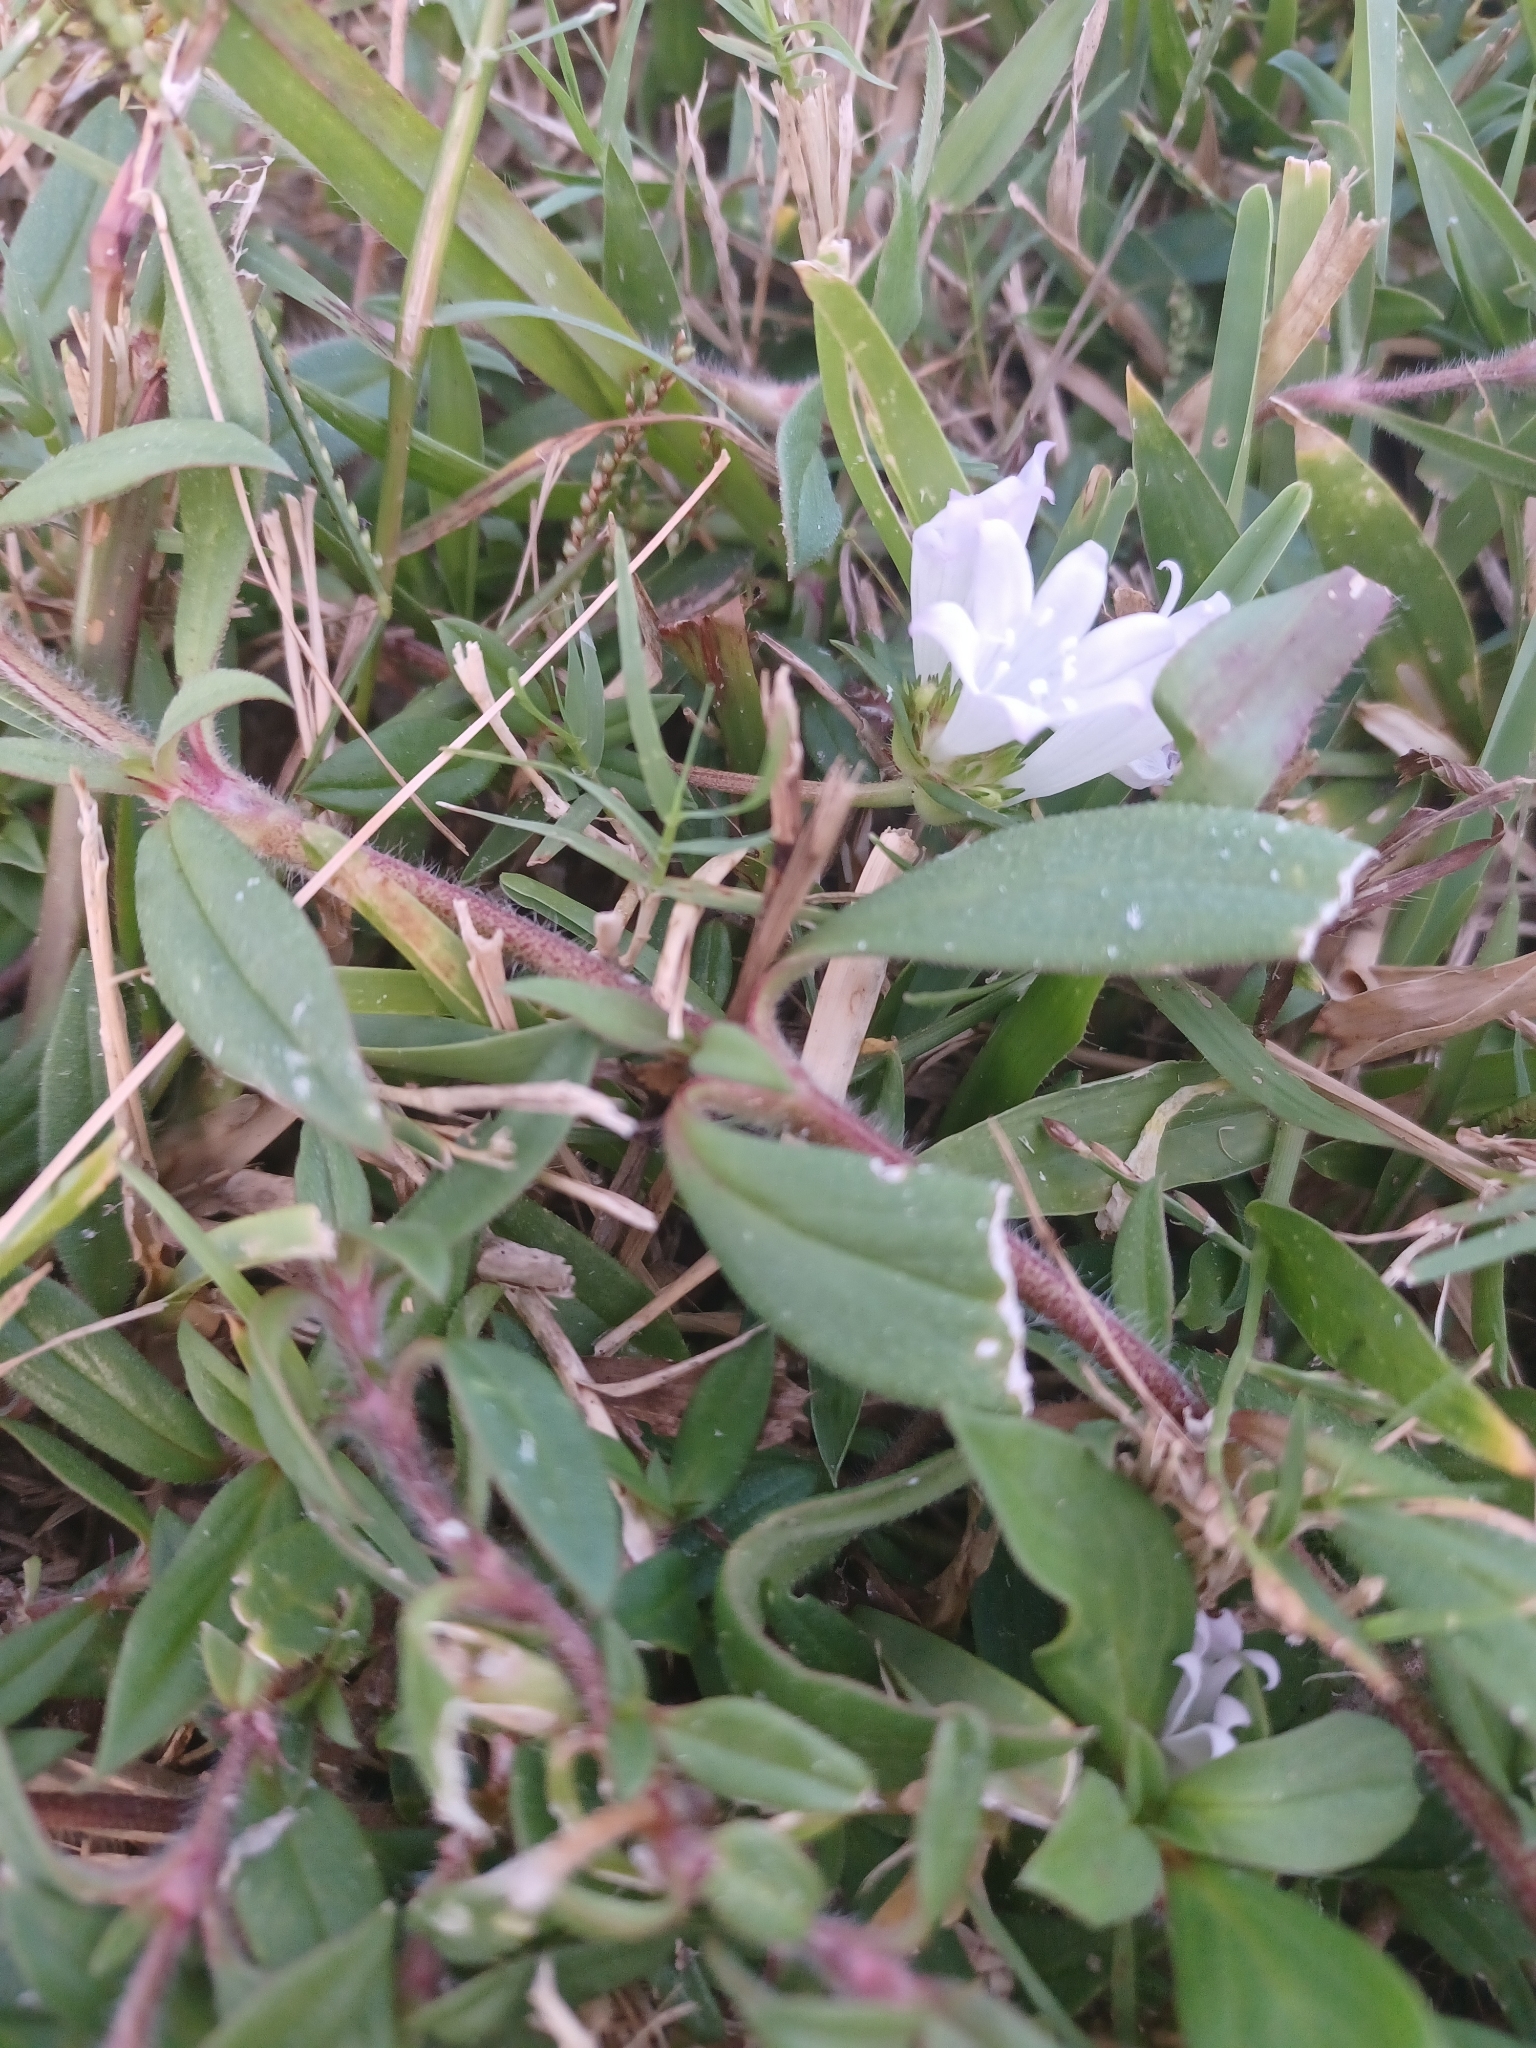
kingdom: Plantae
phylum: Tracheophyta
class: Magnoliopsida
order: Gentianales
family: Rubiaceae
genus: Richardia
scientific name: Richardia grandiflora
